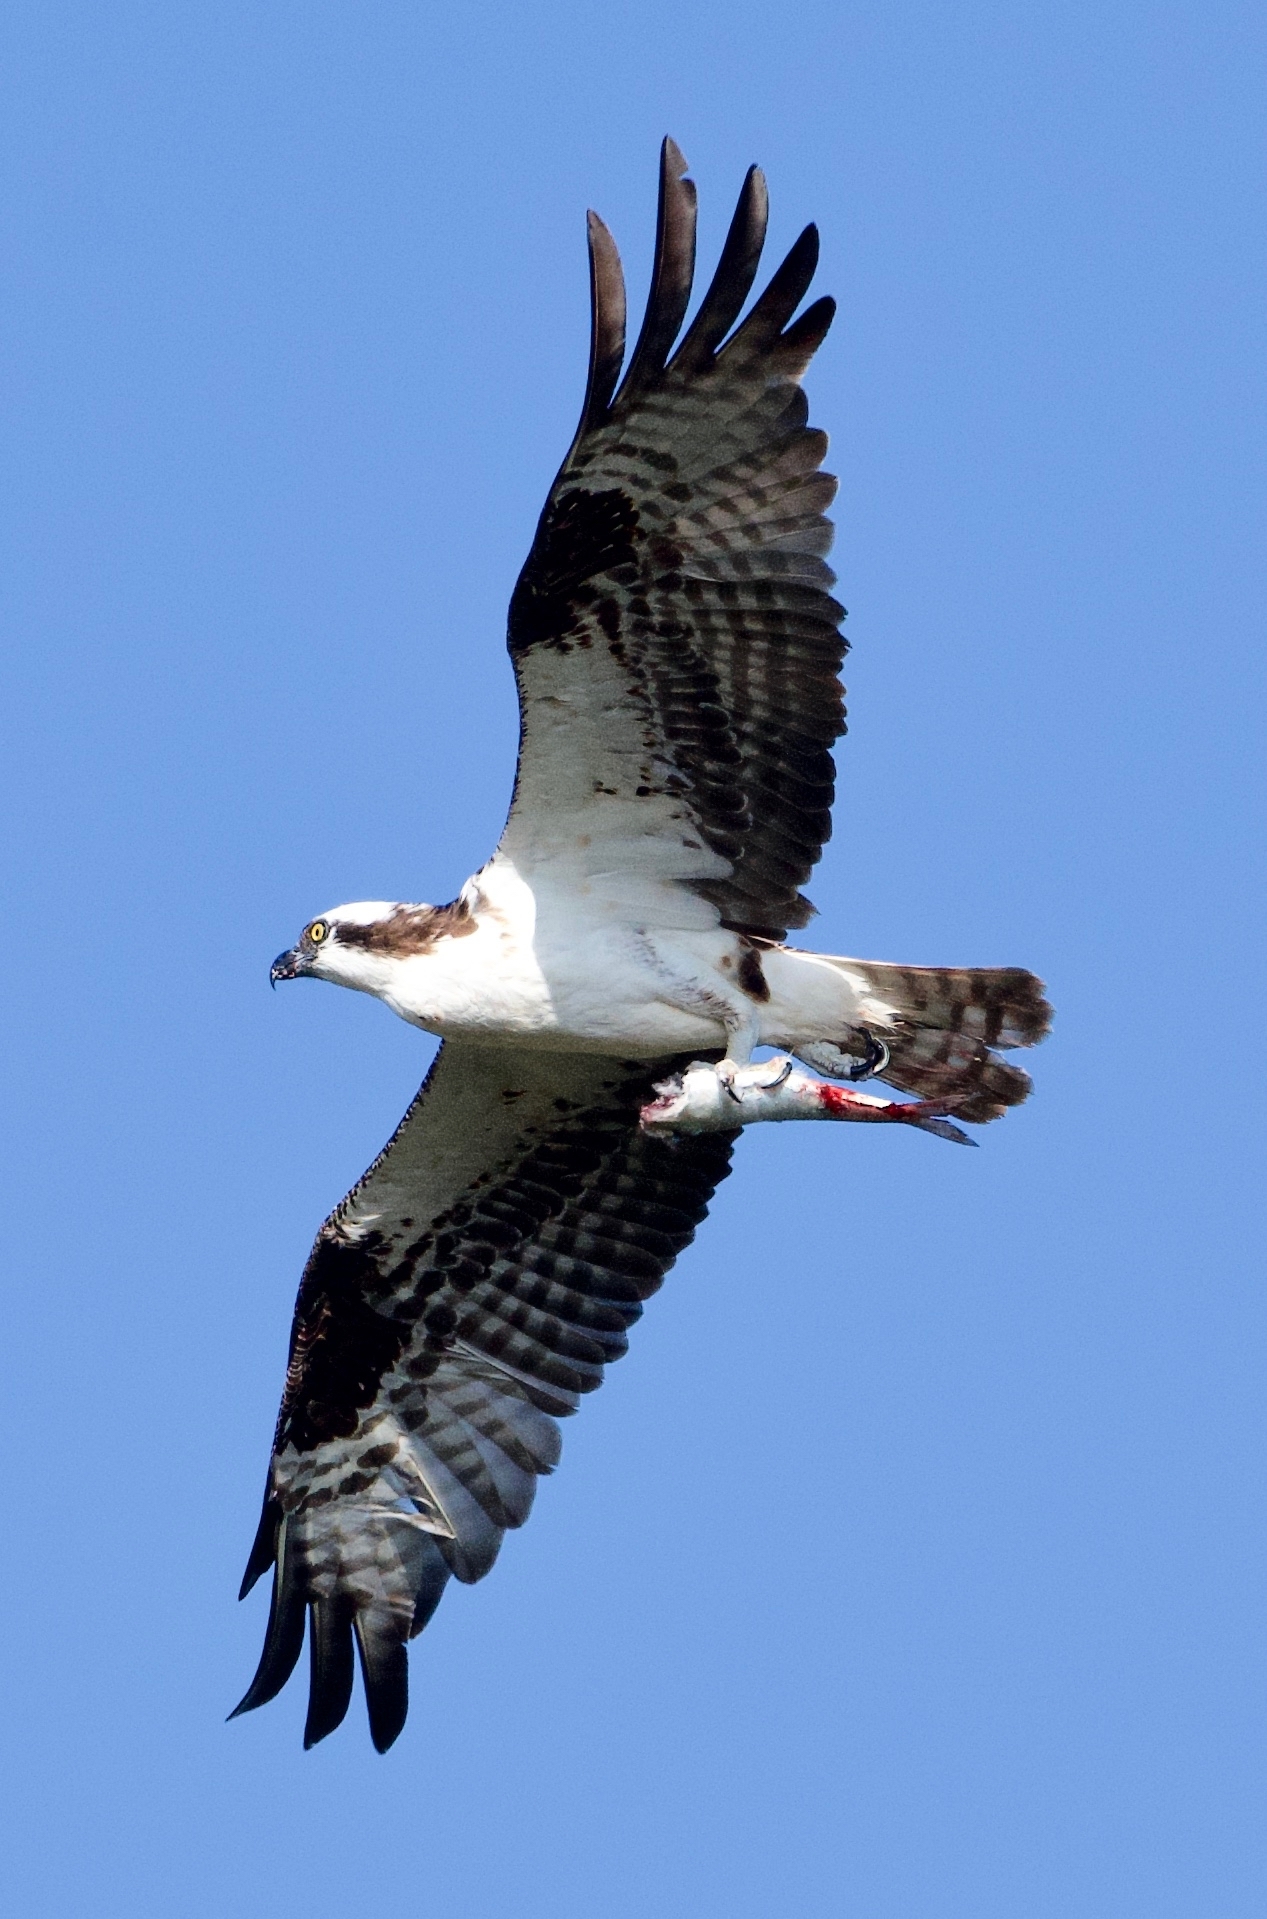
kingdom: Animalia
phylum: Chordata
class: Aves
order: Accipitriformes
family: Pandionidae
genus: Pandion
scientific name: Pandion haliaetus
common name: Osprey
